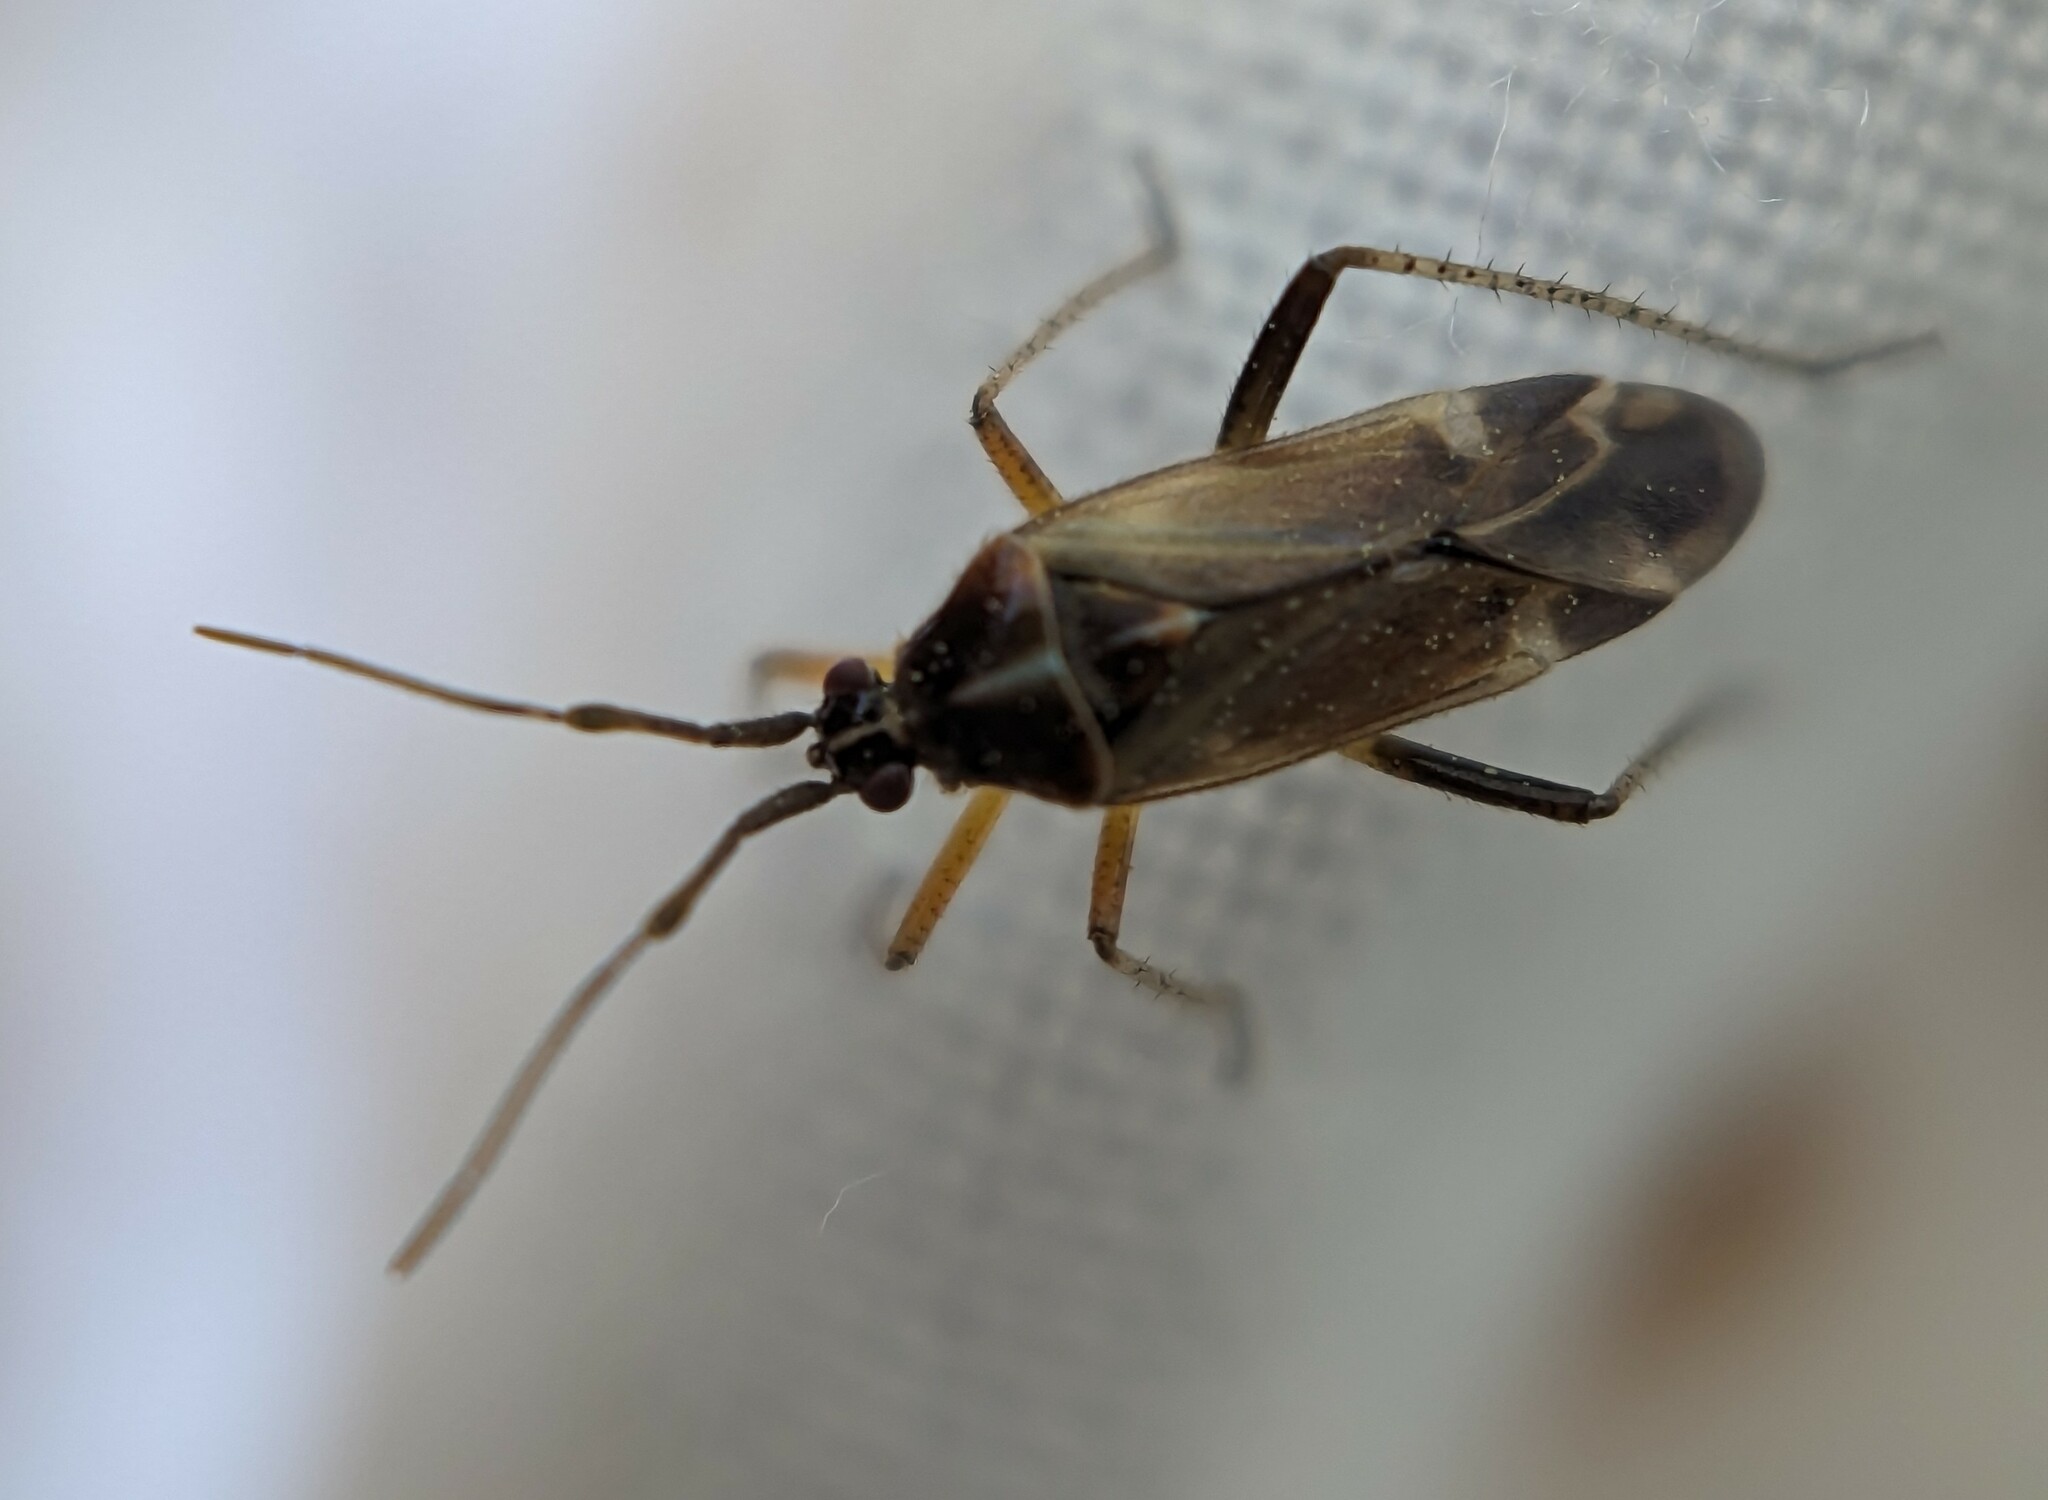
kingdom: Animalia
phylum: Arthropoda
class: Insecta
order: Hemiptera
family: Miridae
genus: Harpocera
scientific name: Harpocera thoracica
